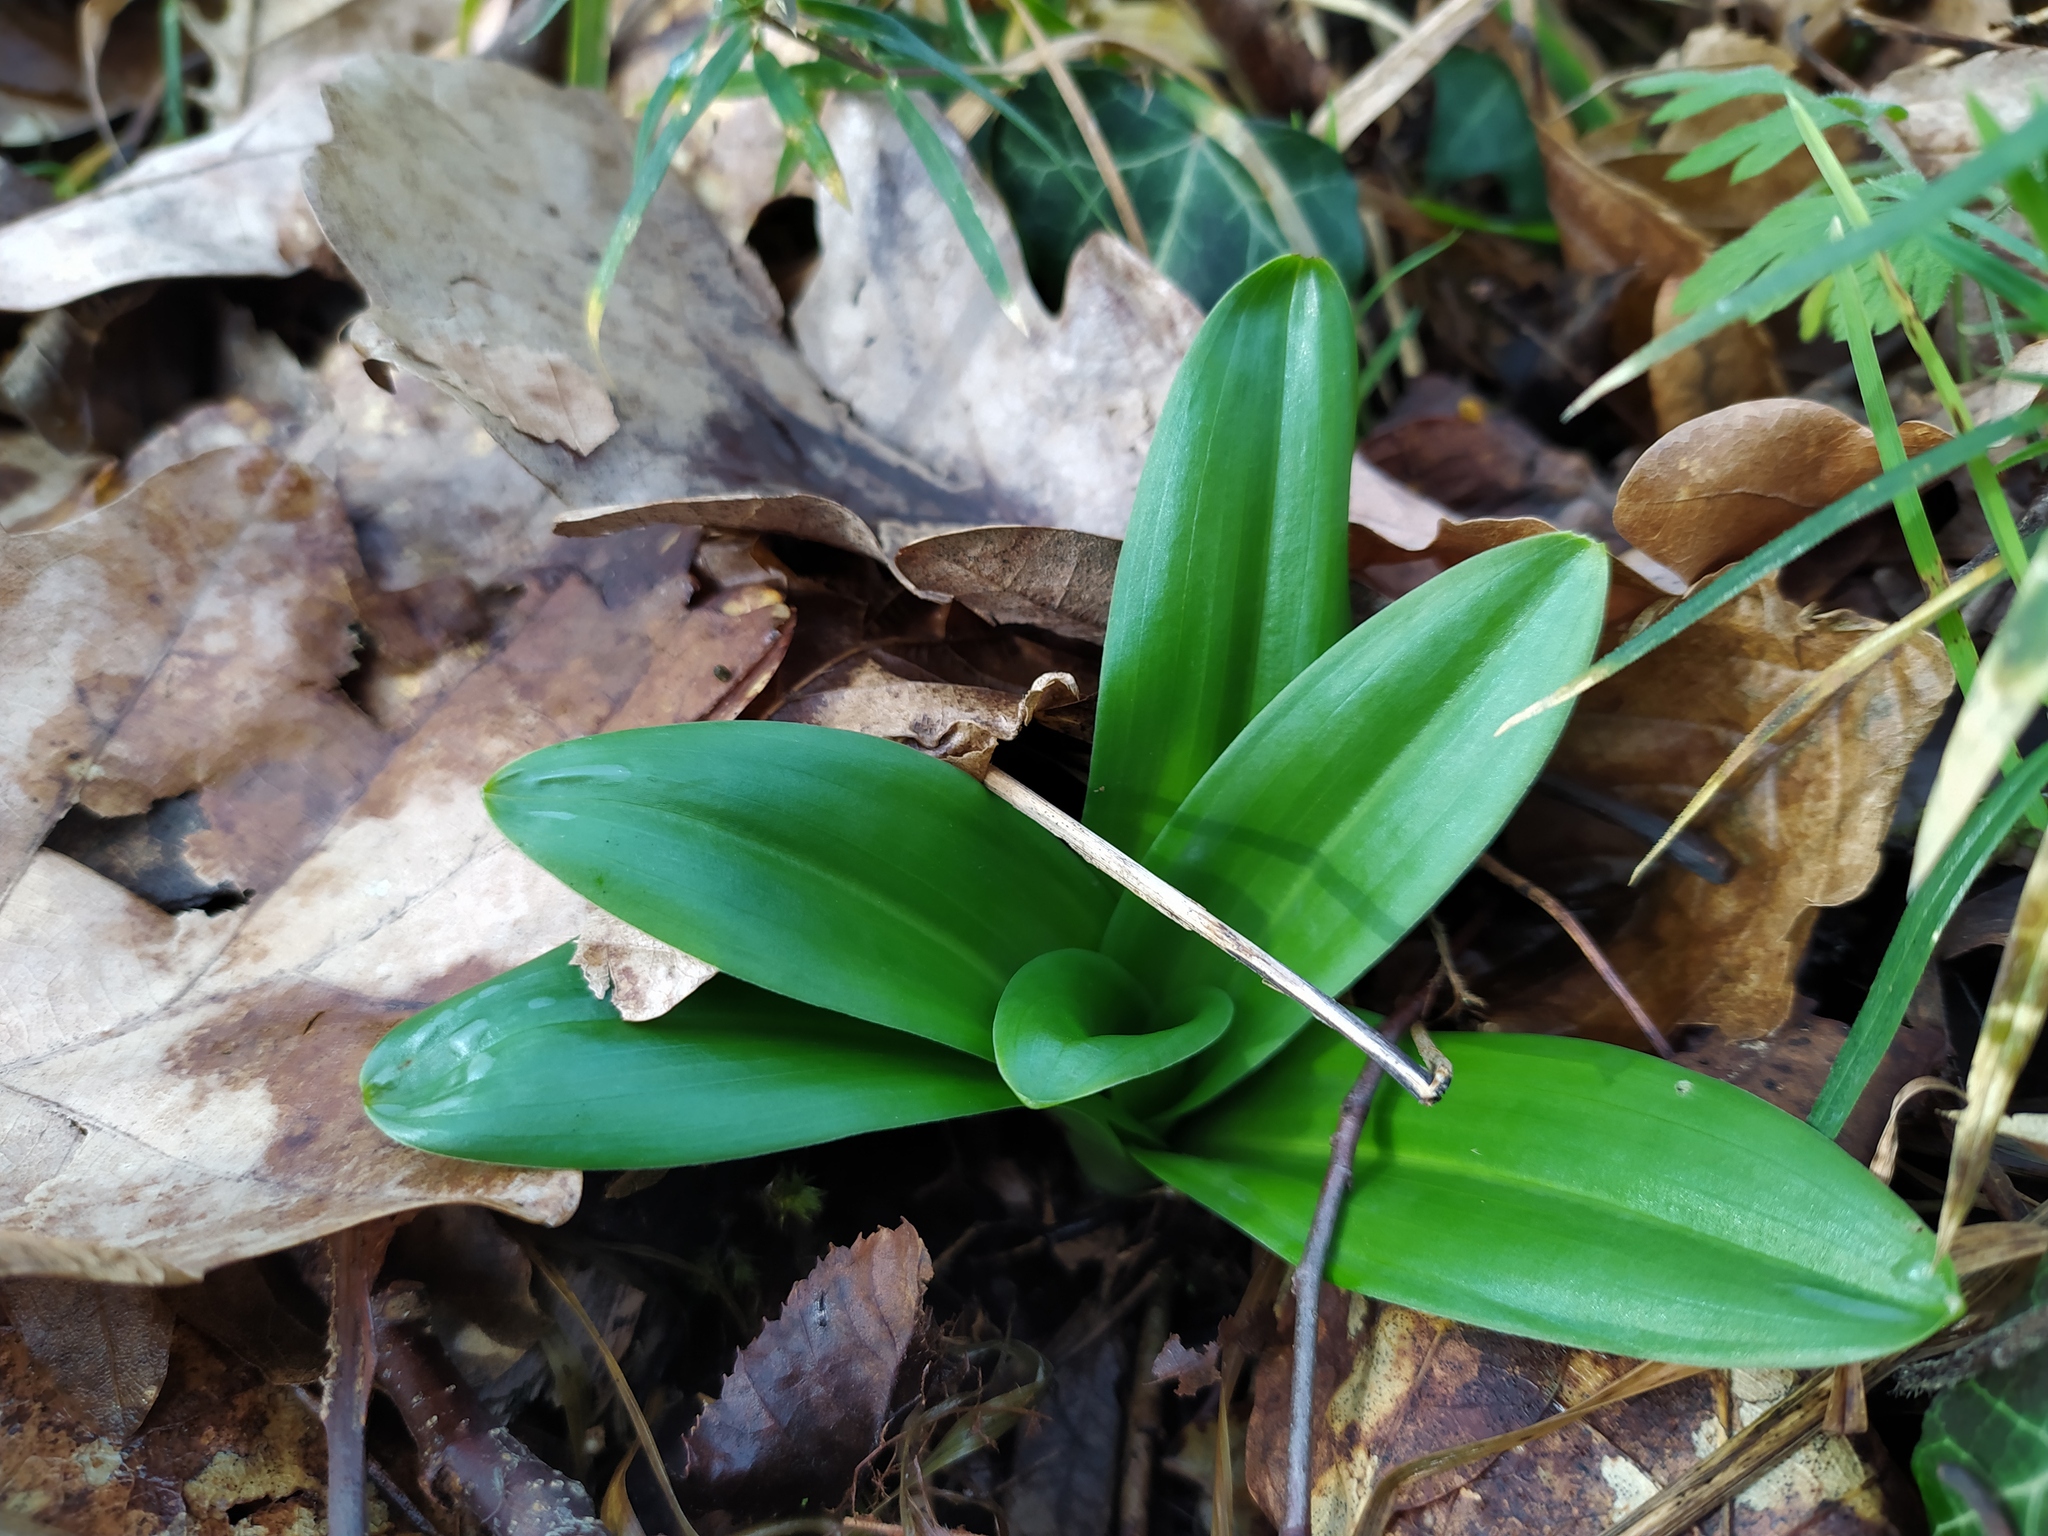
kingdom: Plantae
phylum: Tracheophyta
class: Liliopsida
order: Asparagales
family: Orchidaceae
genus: Orchis
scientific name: Orchis mascula
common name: Early-purple orchid
